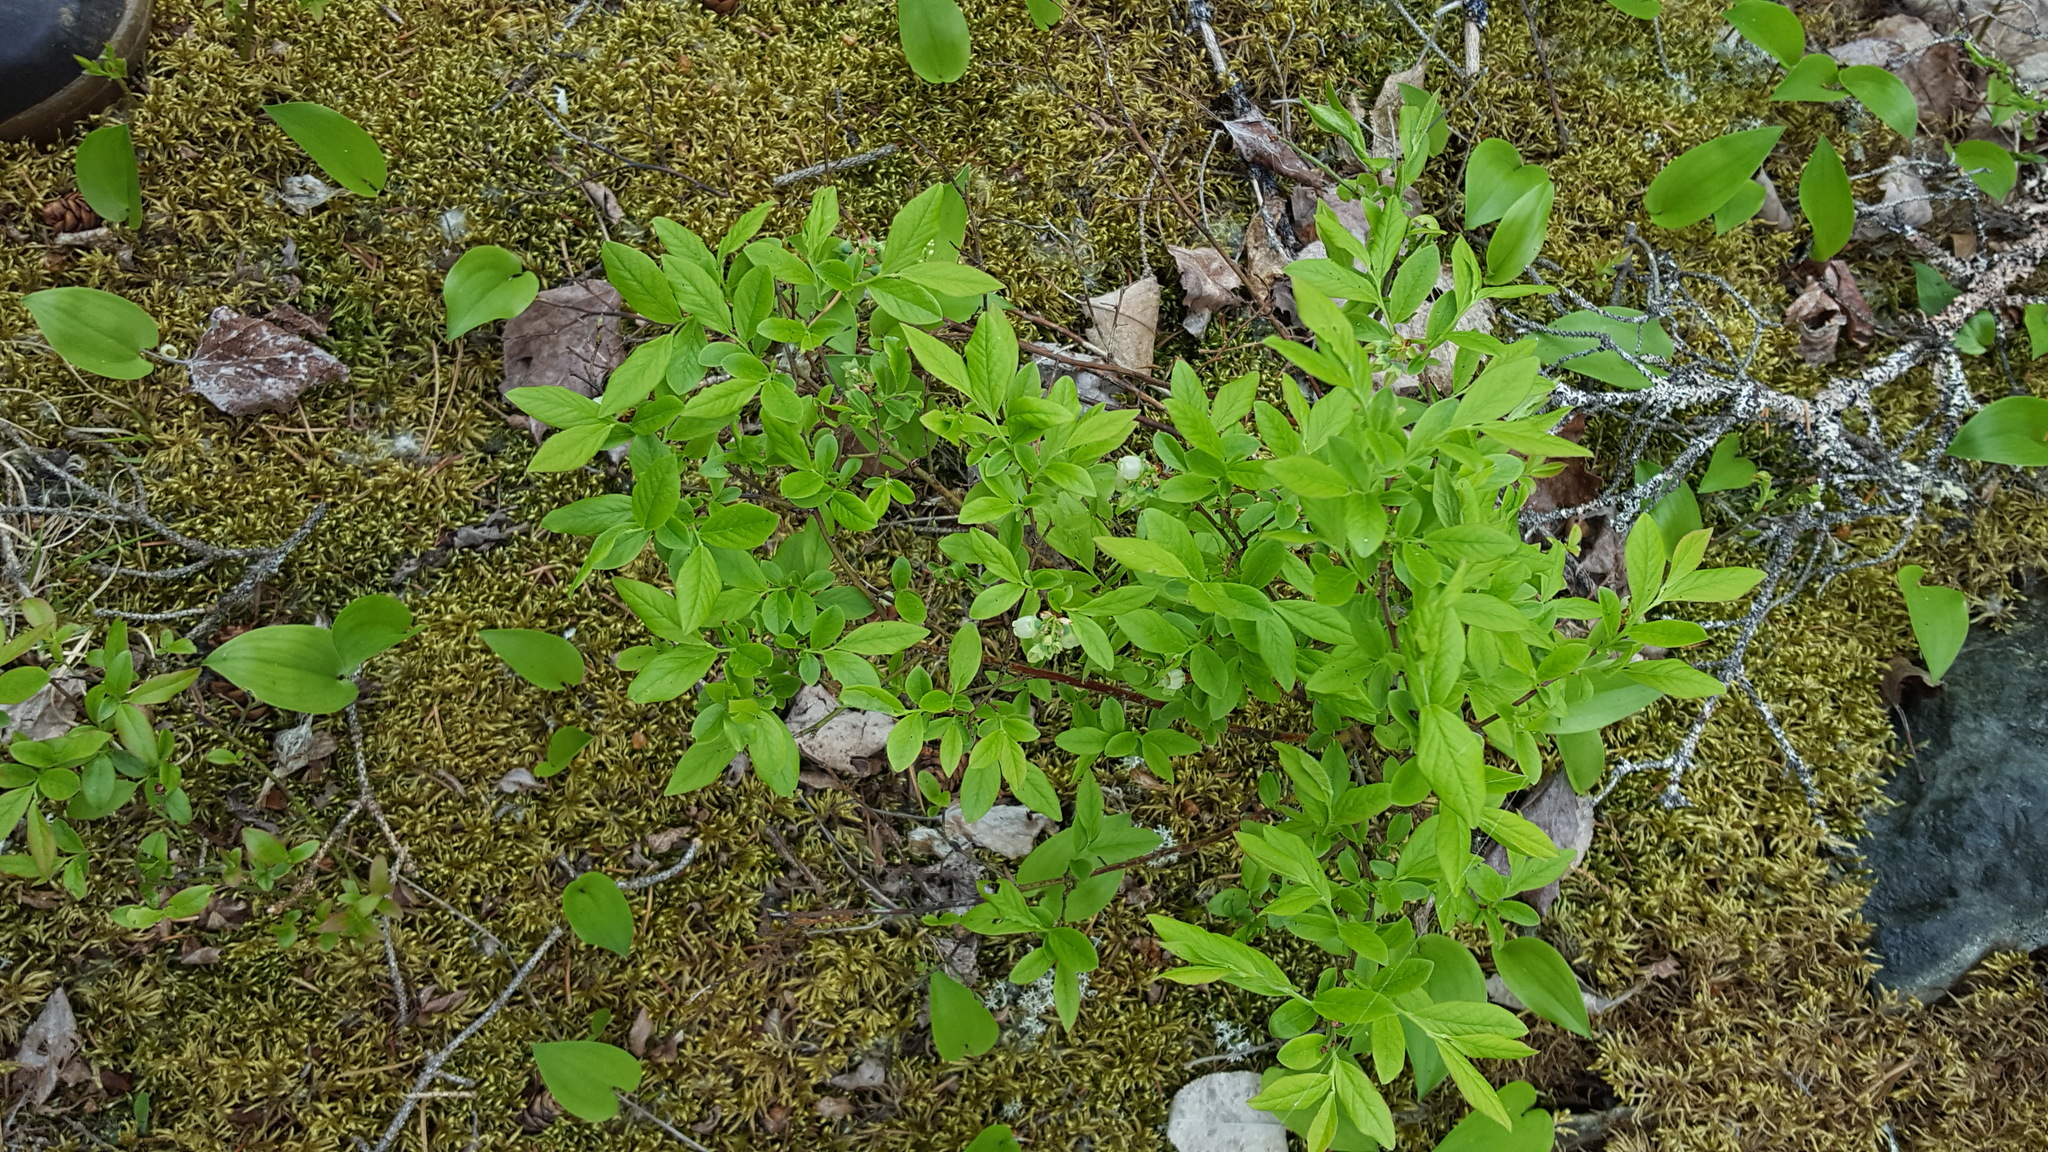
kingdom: Plantae
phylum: Tracheophyta
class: Magnoliopsida
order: Ericales
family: Ericaceae
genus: Vaccinium
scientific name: Vaccinium angustifolium
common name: Early lowbush blueberry
